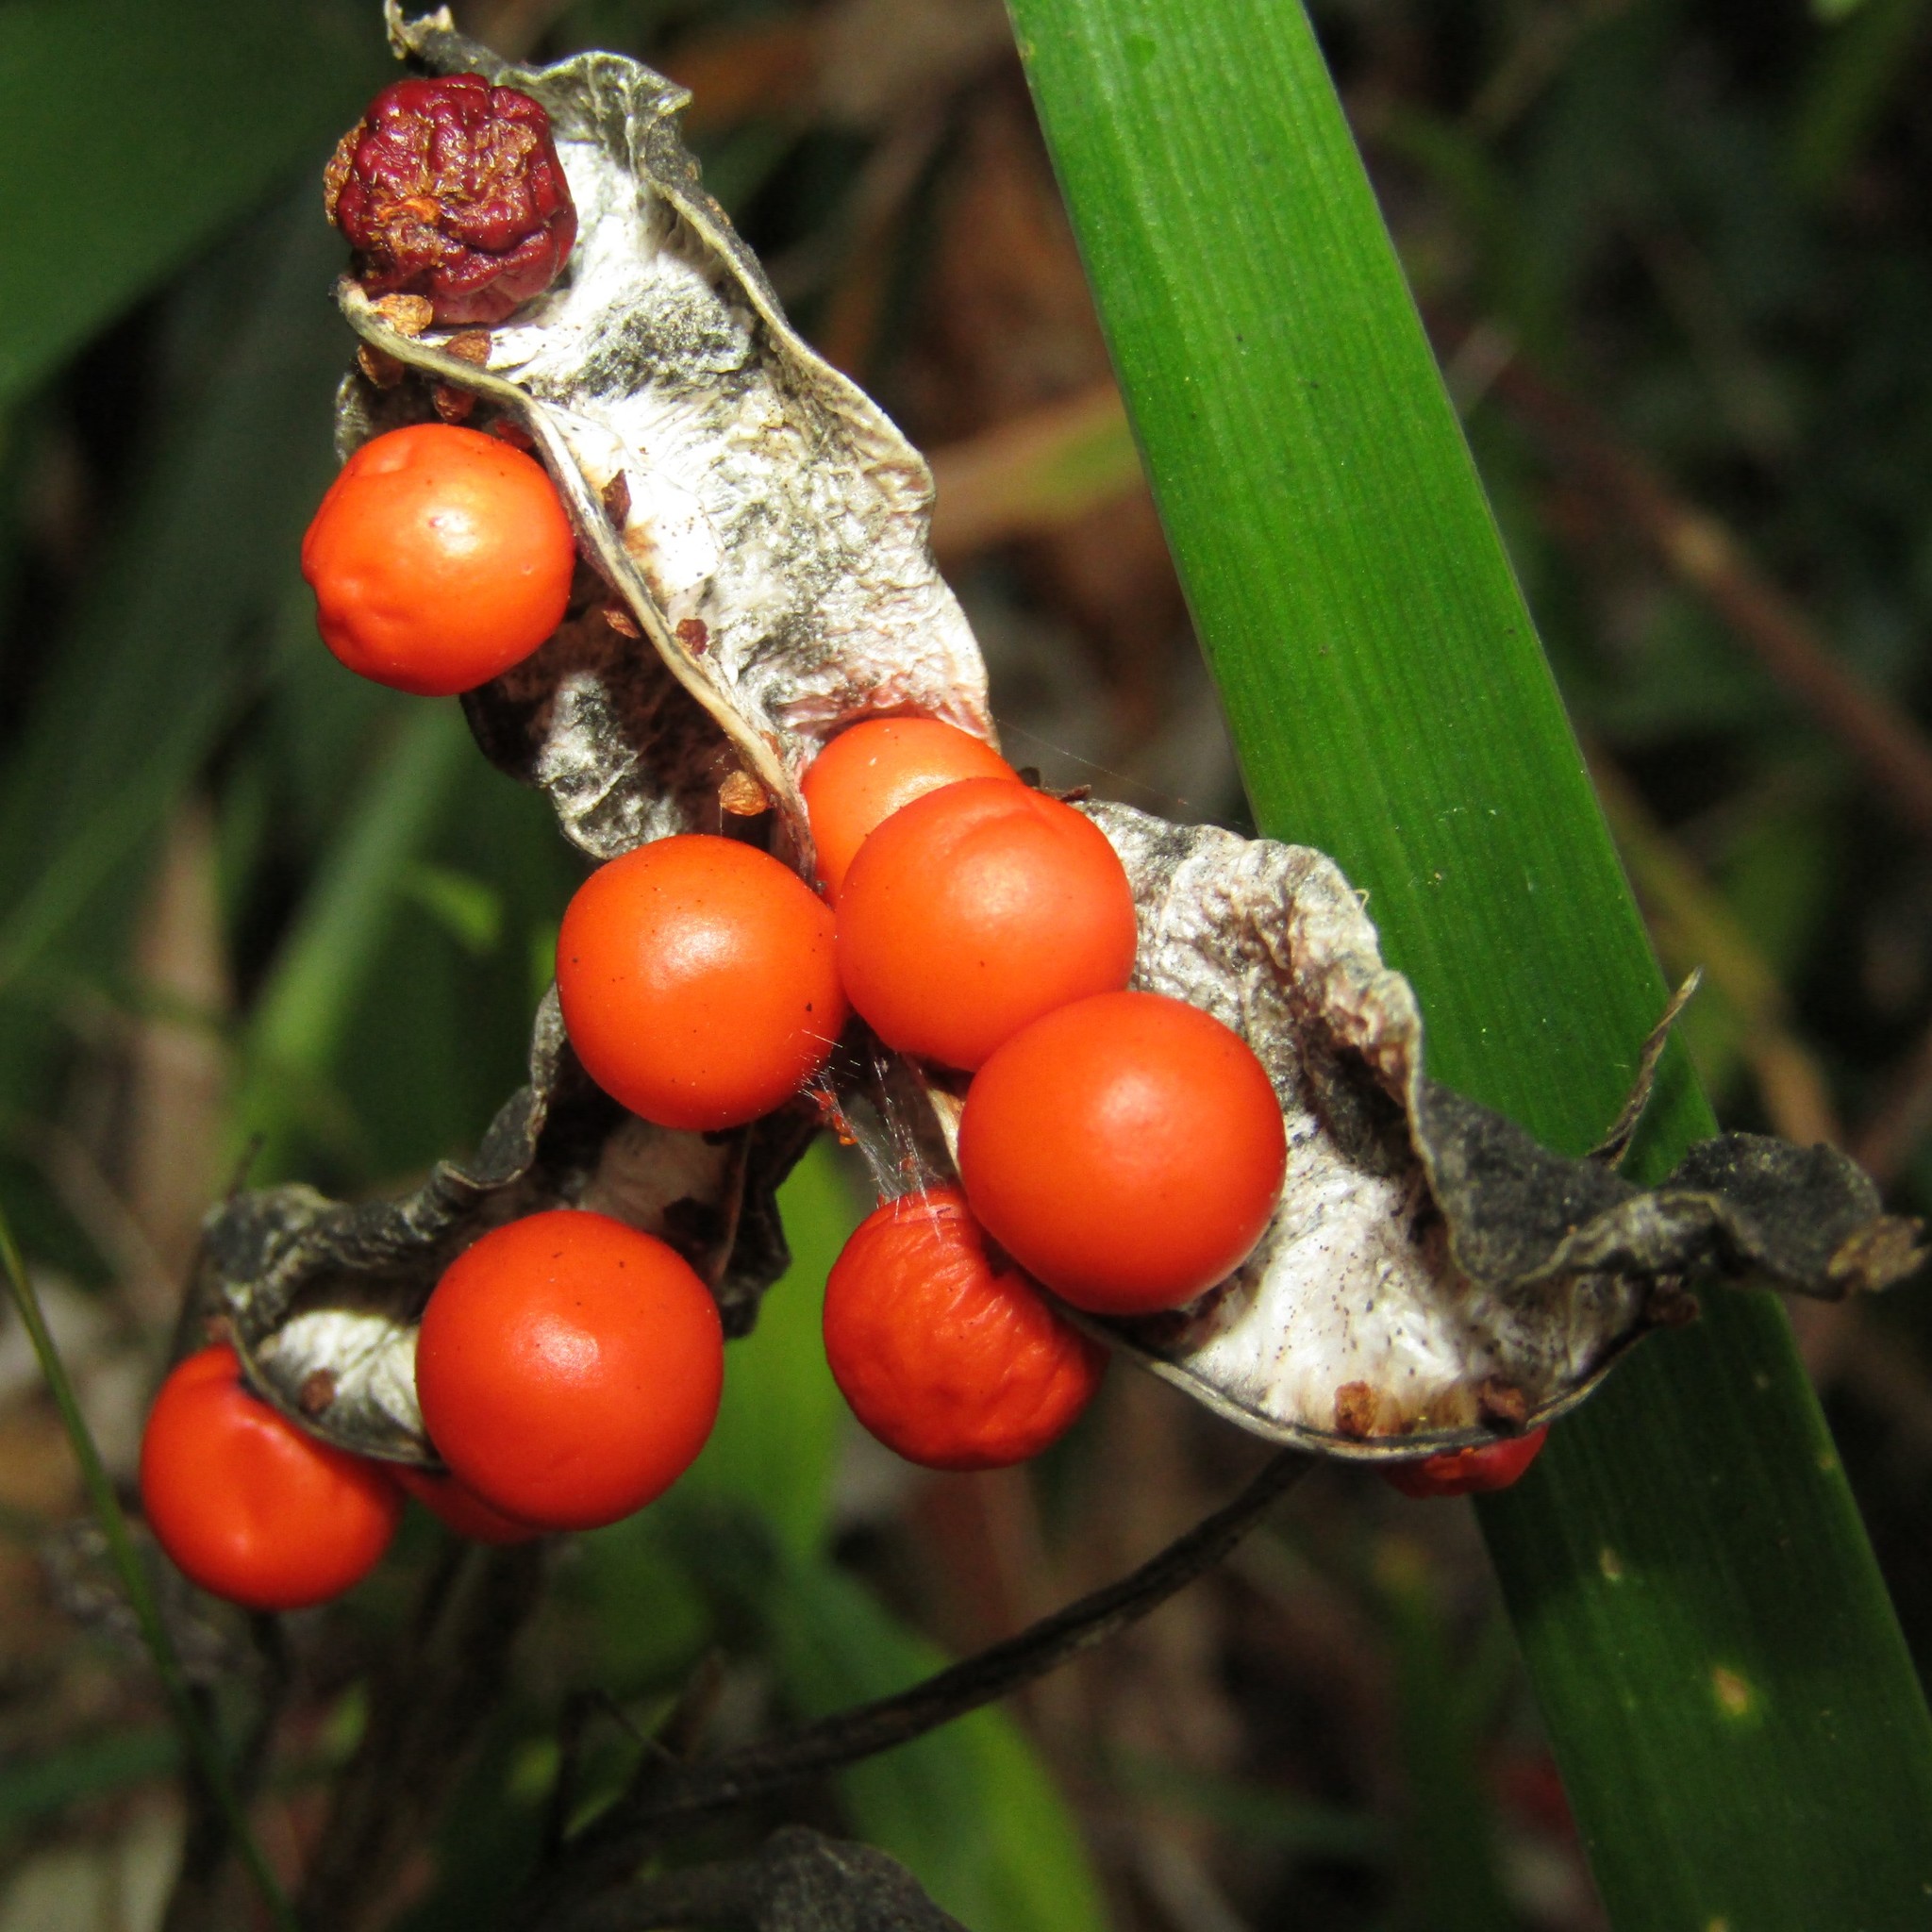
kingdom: Plantae
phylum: Tracheophyta
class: Liliopsida
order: Asparagales
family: Iridaceae
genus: Iris
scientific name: Iris foetidissima
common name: Stinking iris
